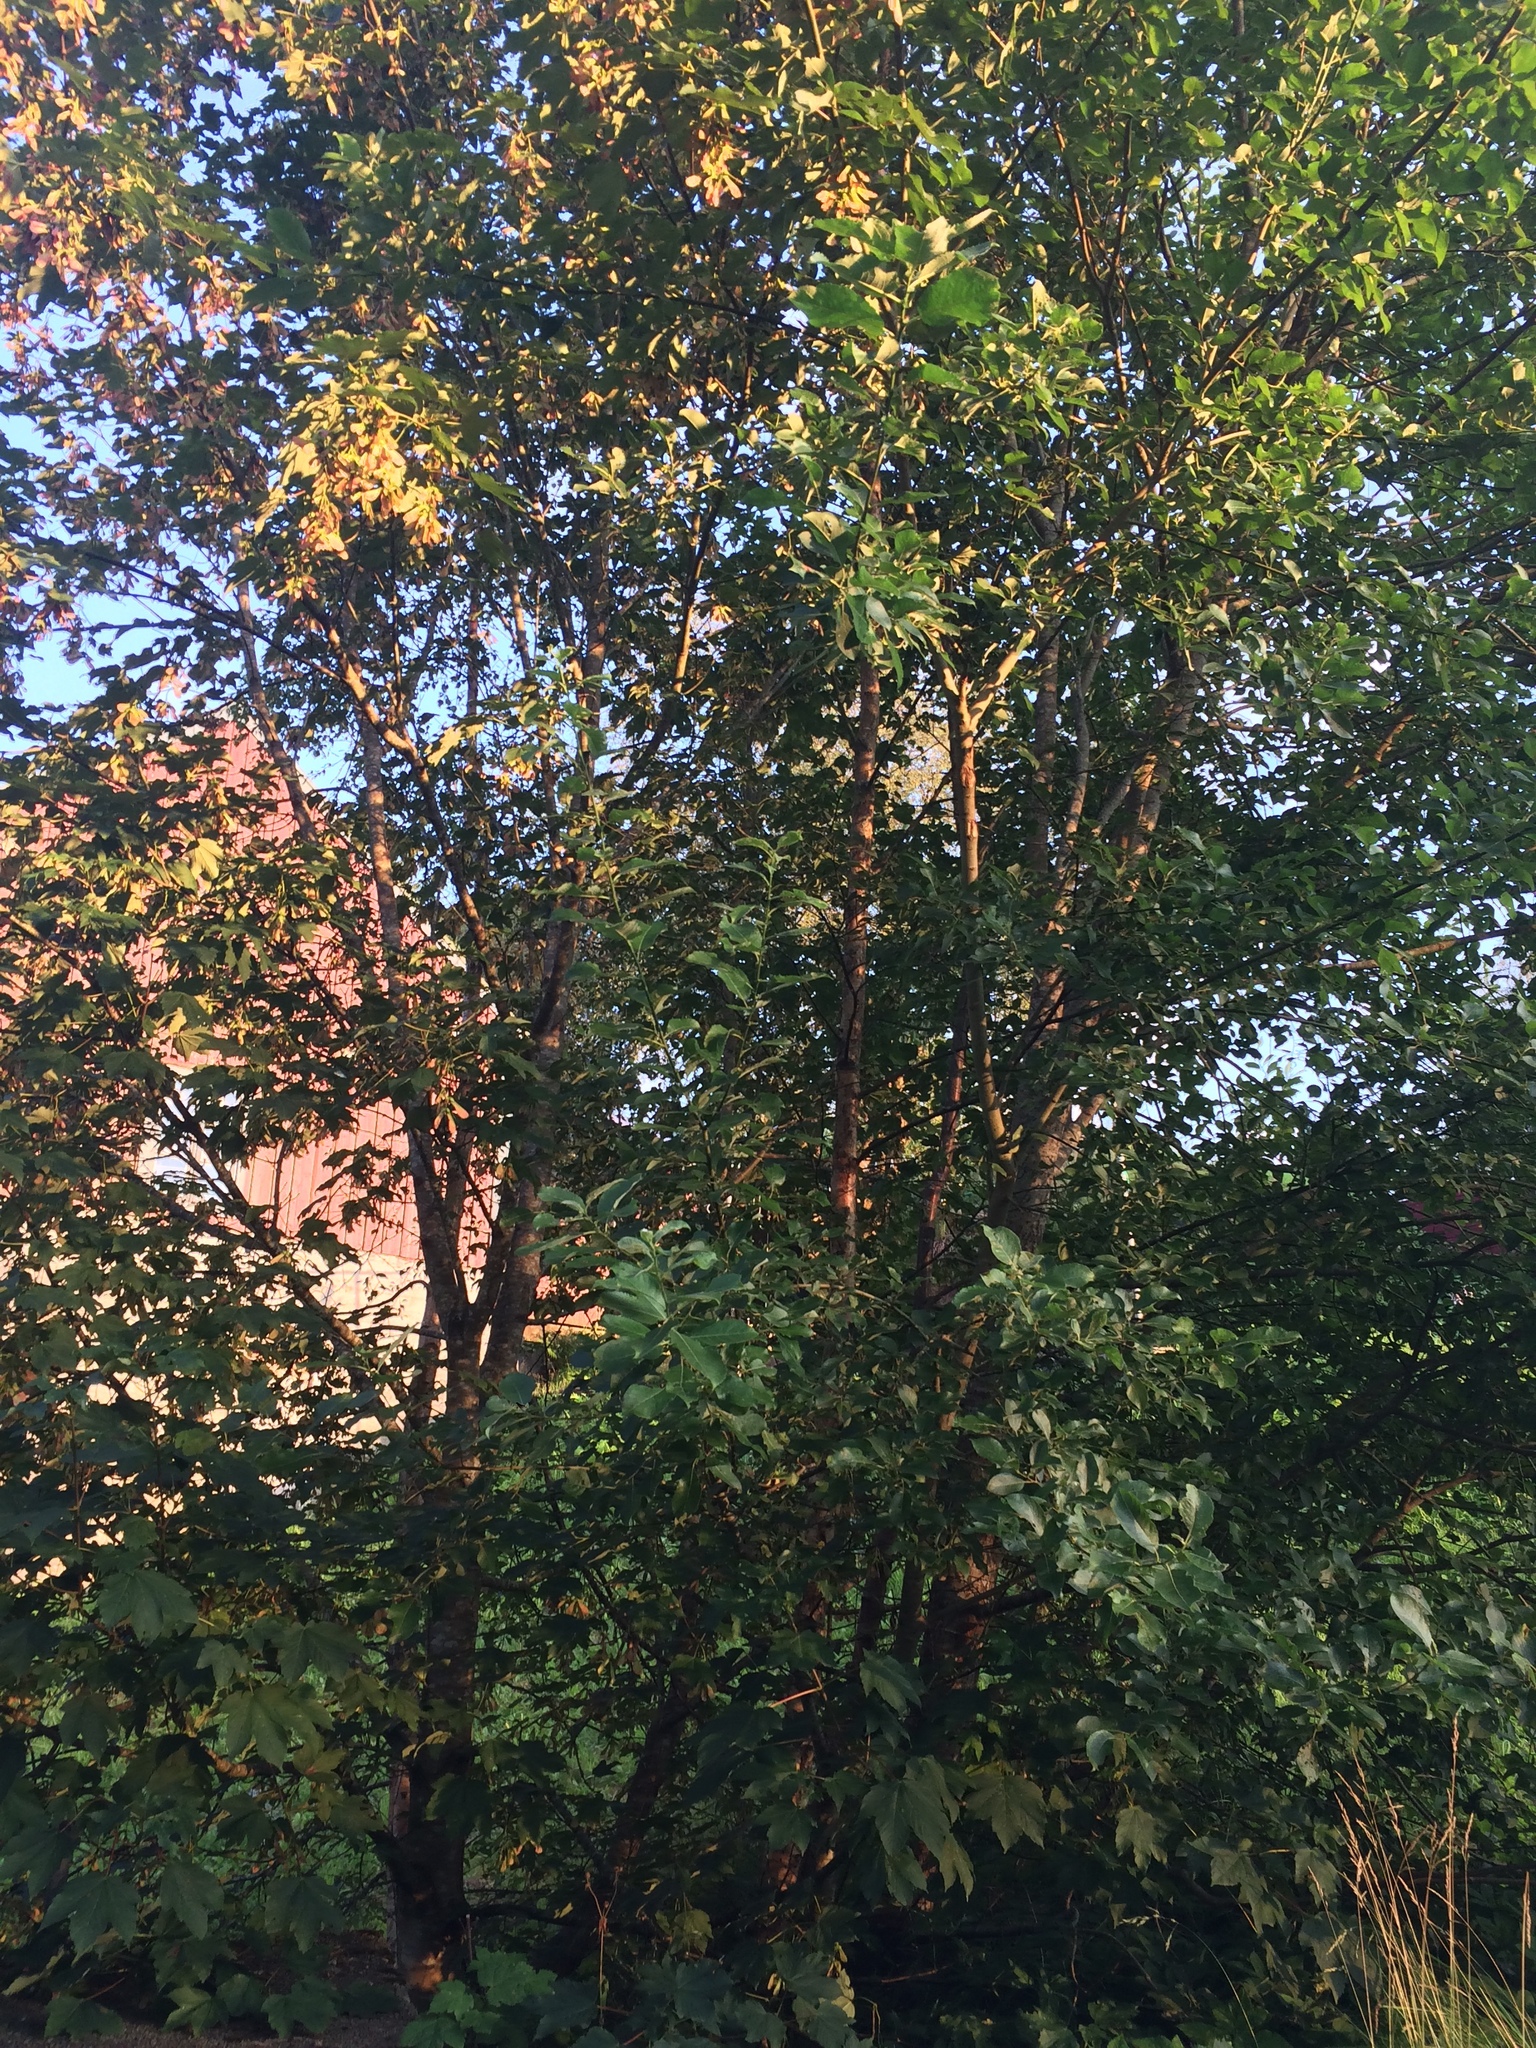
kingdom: Plantae
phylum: Tracheophyta
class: Magnoliopsida
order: Sapindales
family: Sapindaceae
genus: Acer
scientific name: Acer pseudoplatanus
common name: Sycamore
